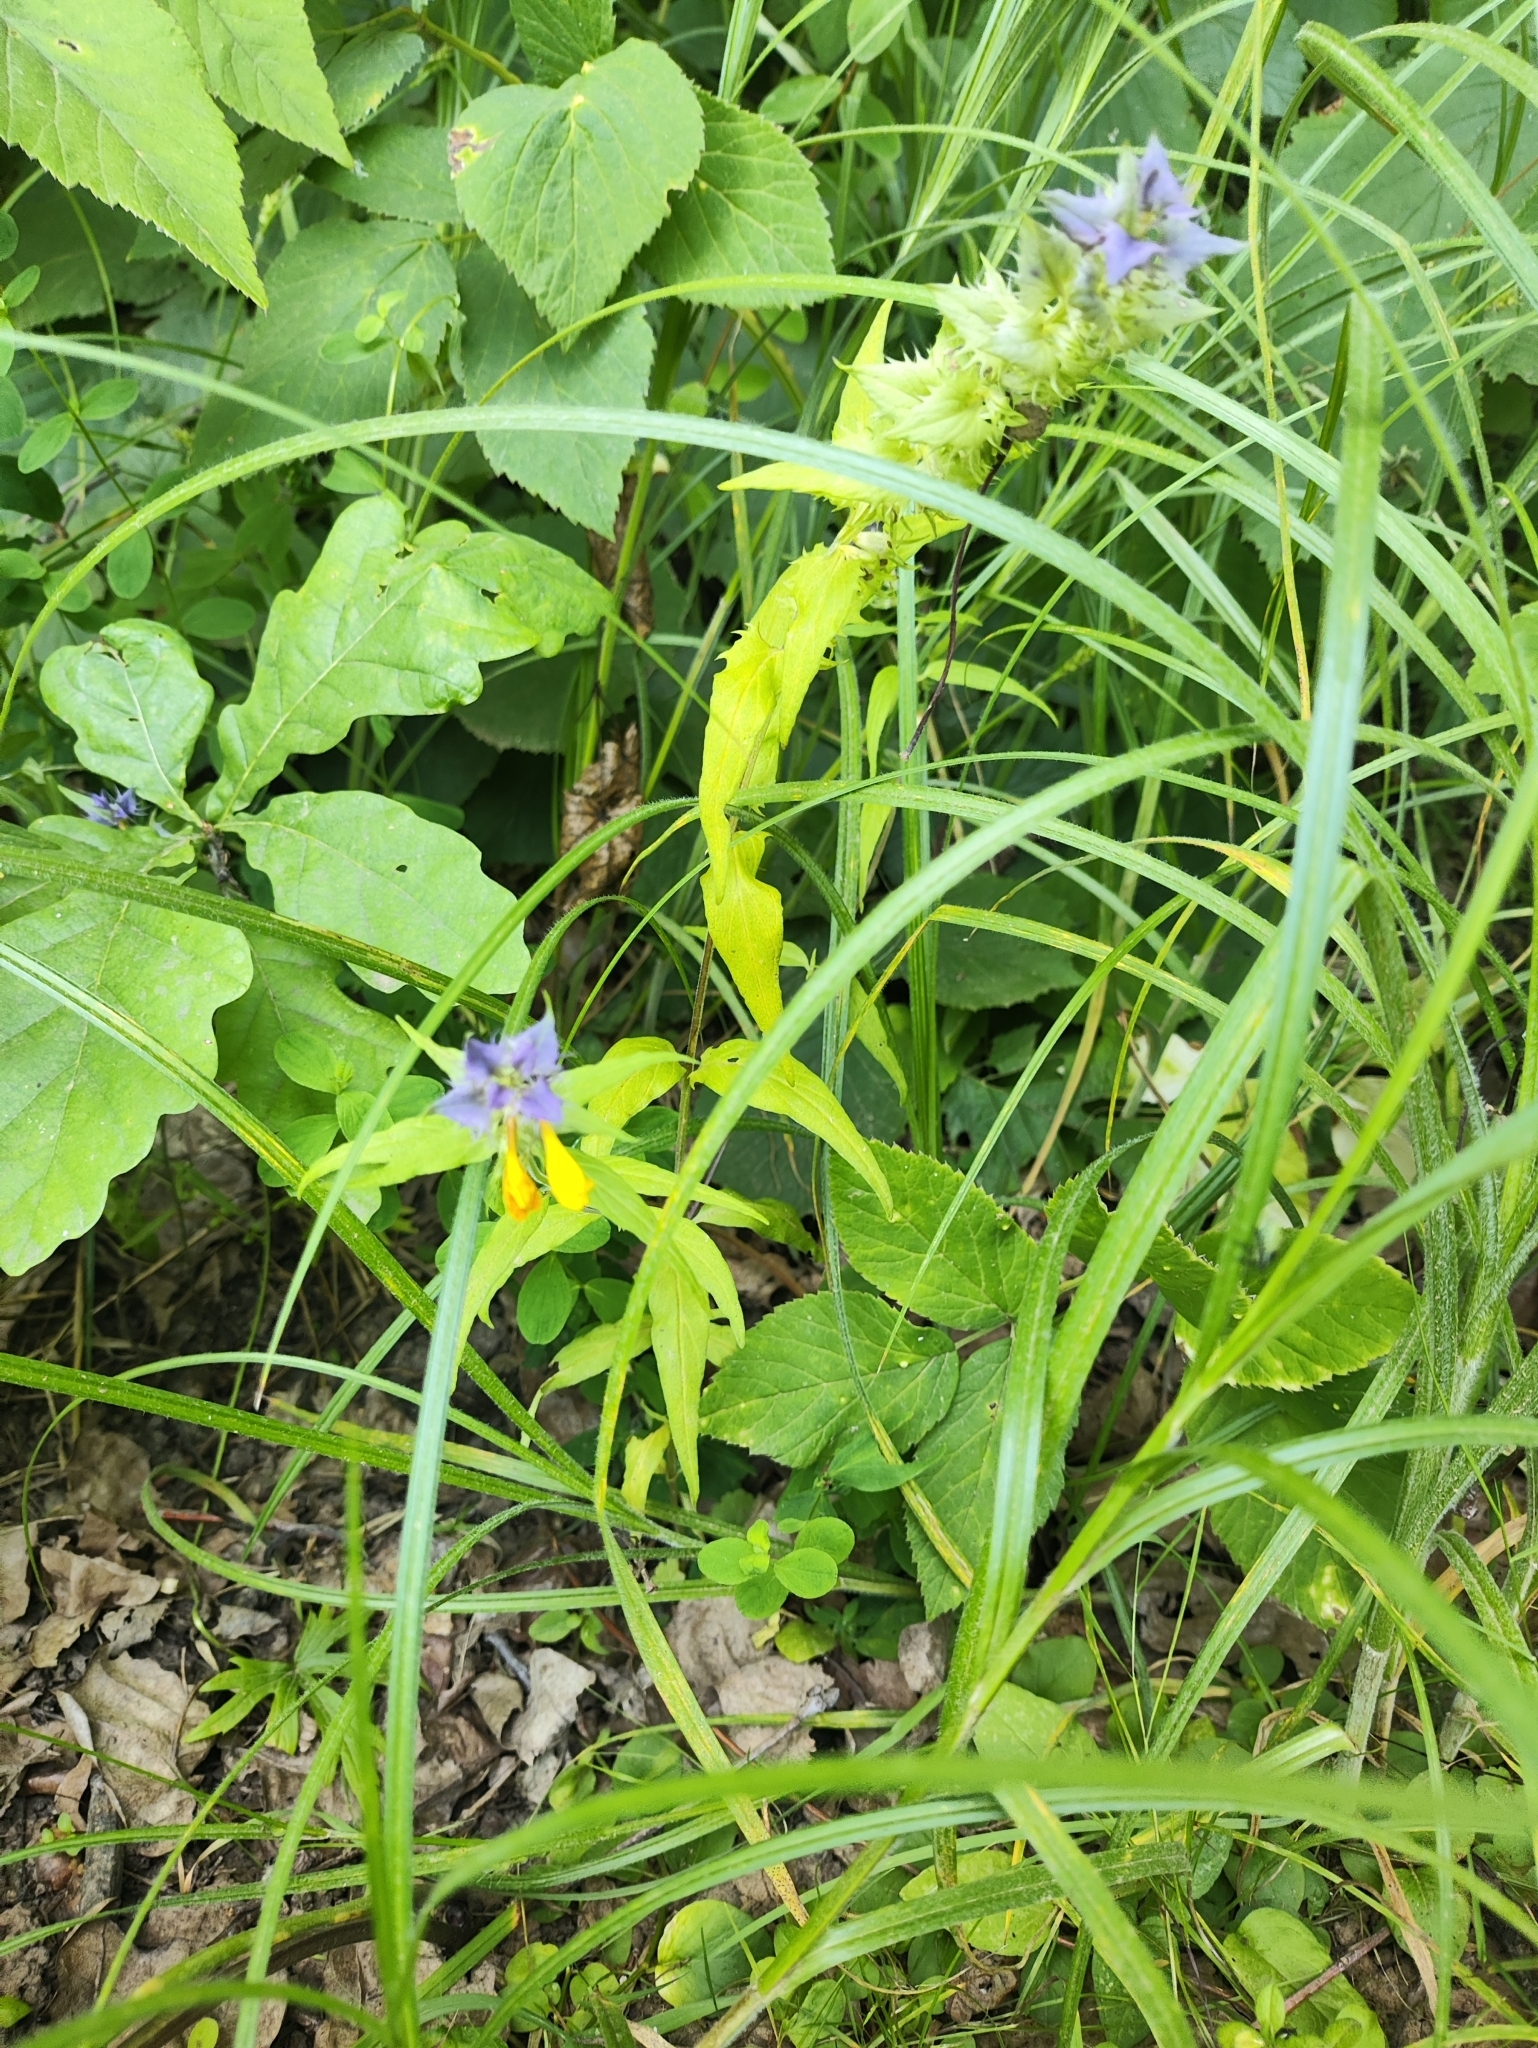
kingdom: Plantae
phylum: Tracheophyta
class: Magnoliopsida
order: Lamiales
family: Orobanchaceae
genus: Melampyrum
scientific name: Melampyrum nemorosum
